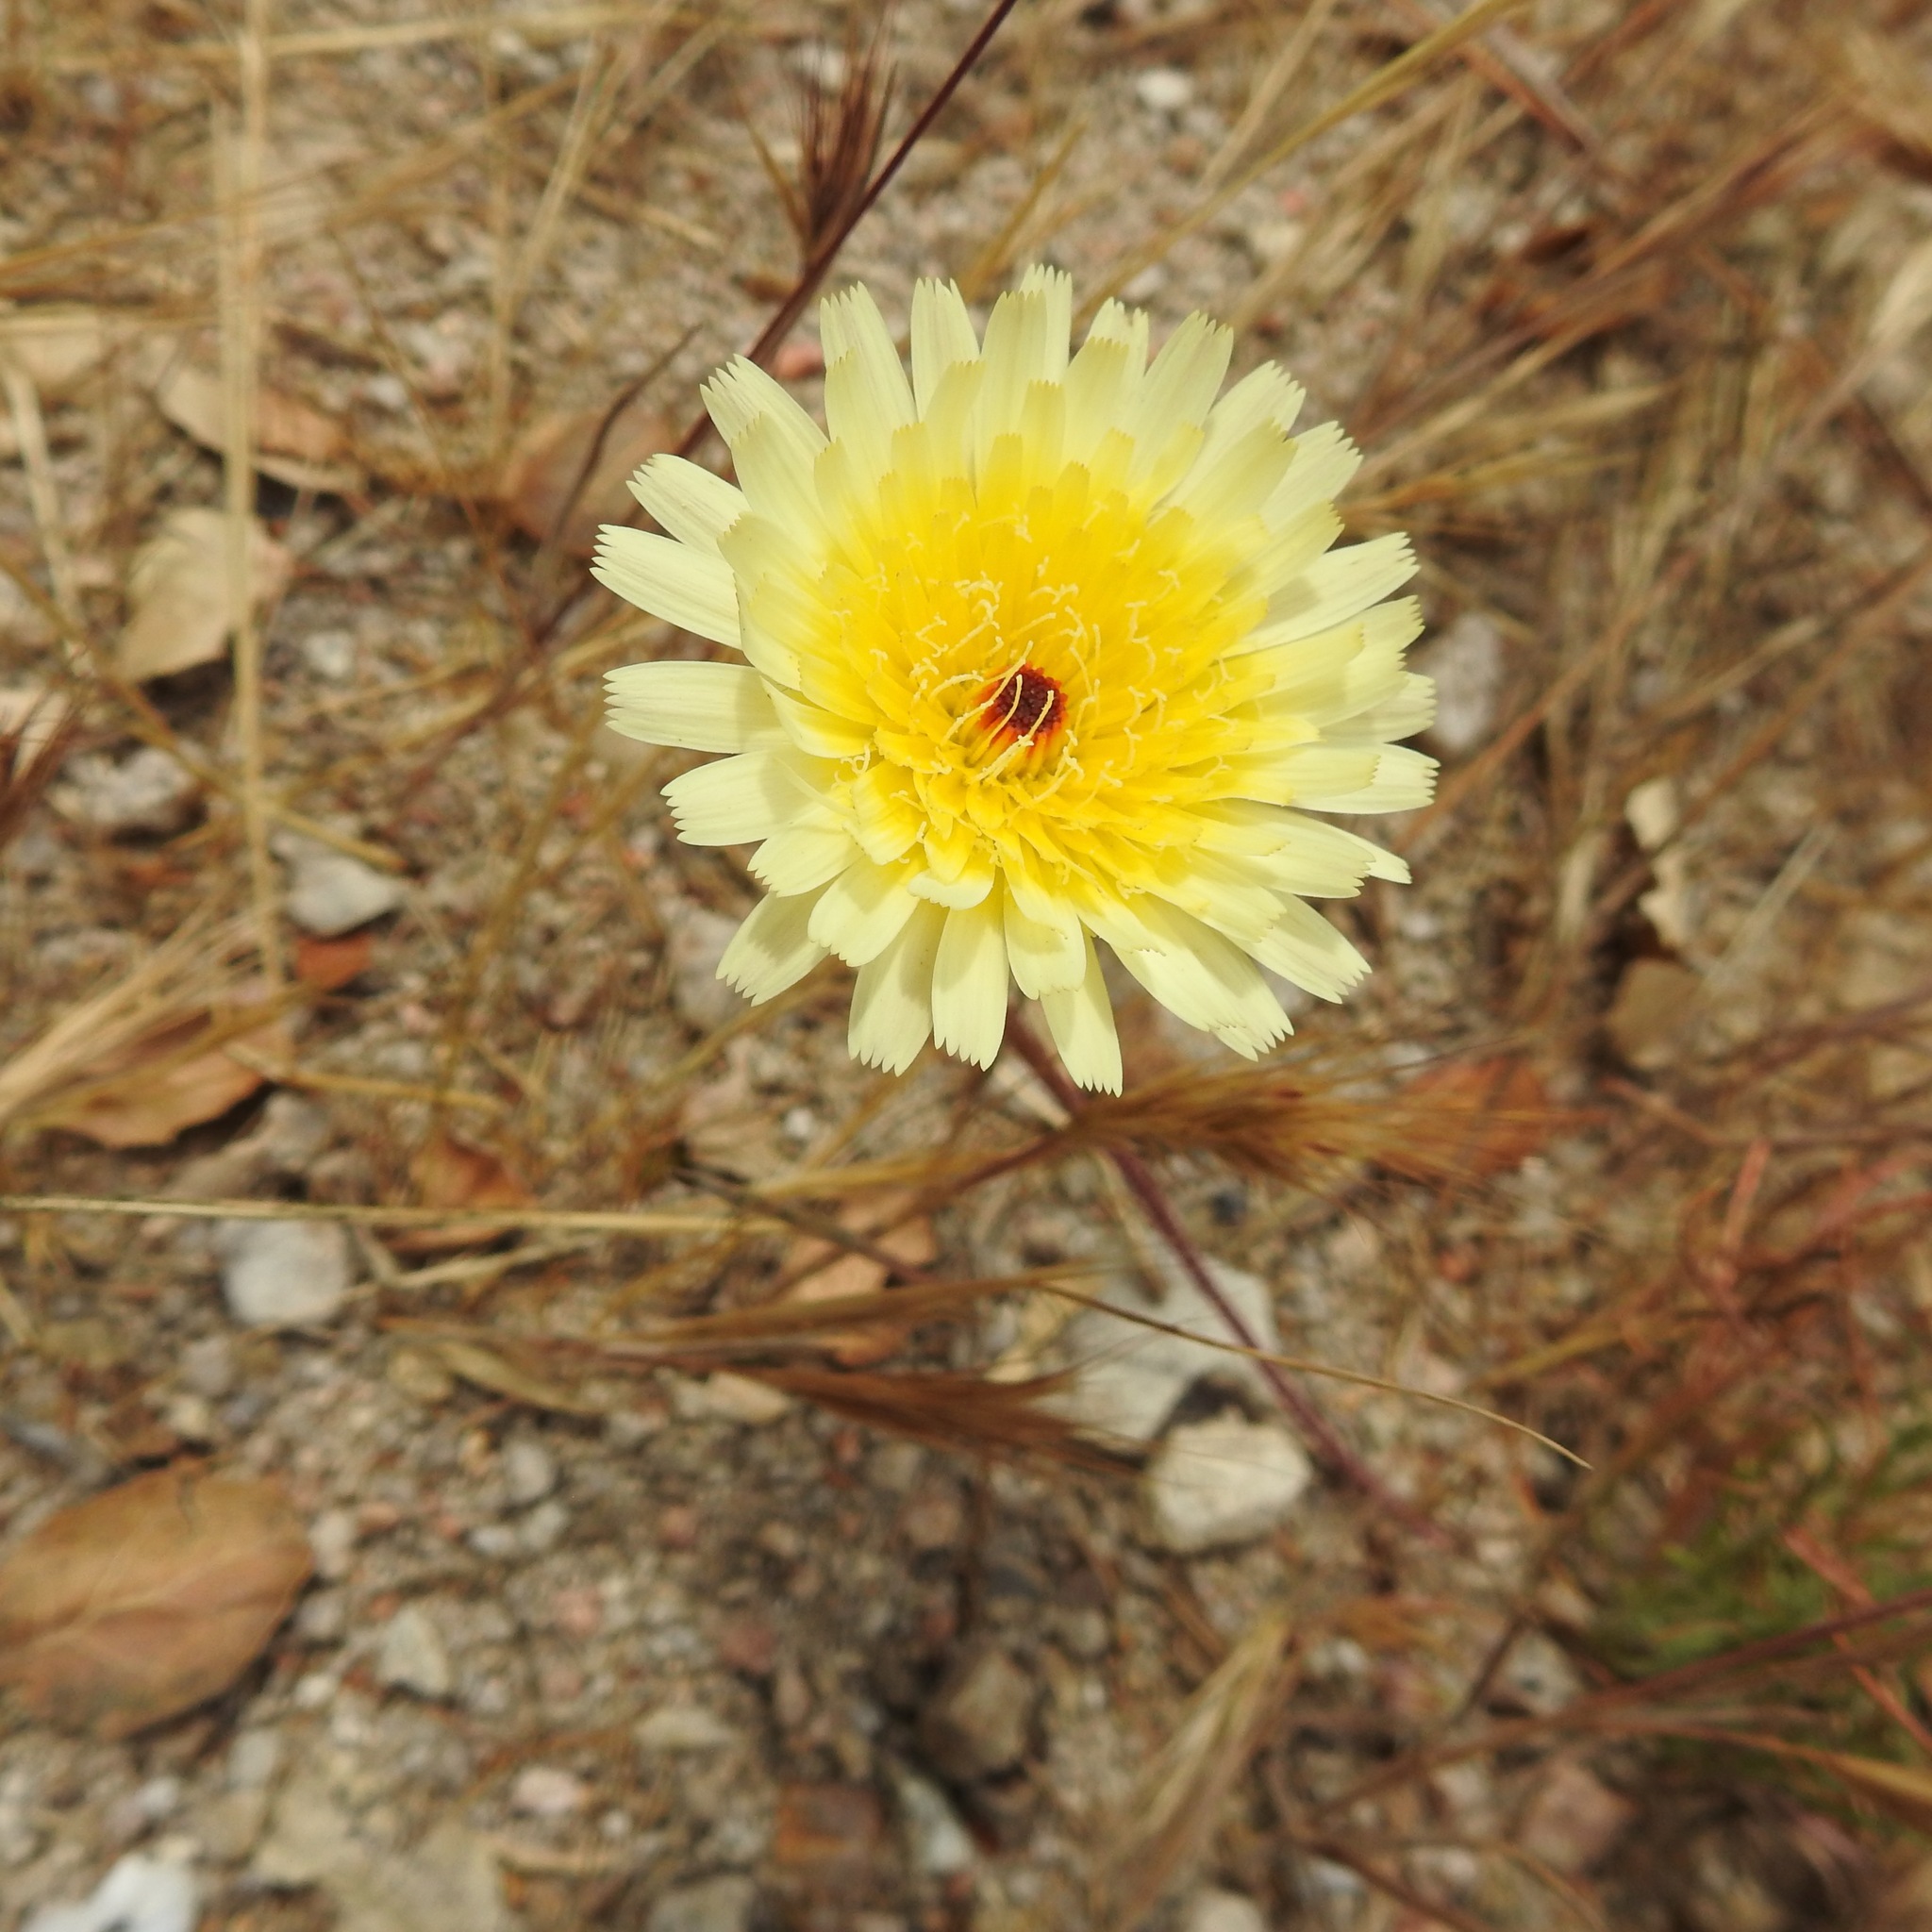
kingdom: Plantae
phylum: Tracheophyta
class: Magnoliopsida
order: Asterales
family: Asteraceae
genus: Malacothrix
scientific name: Malacothrix californica
